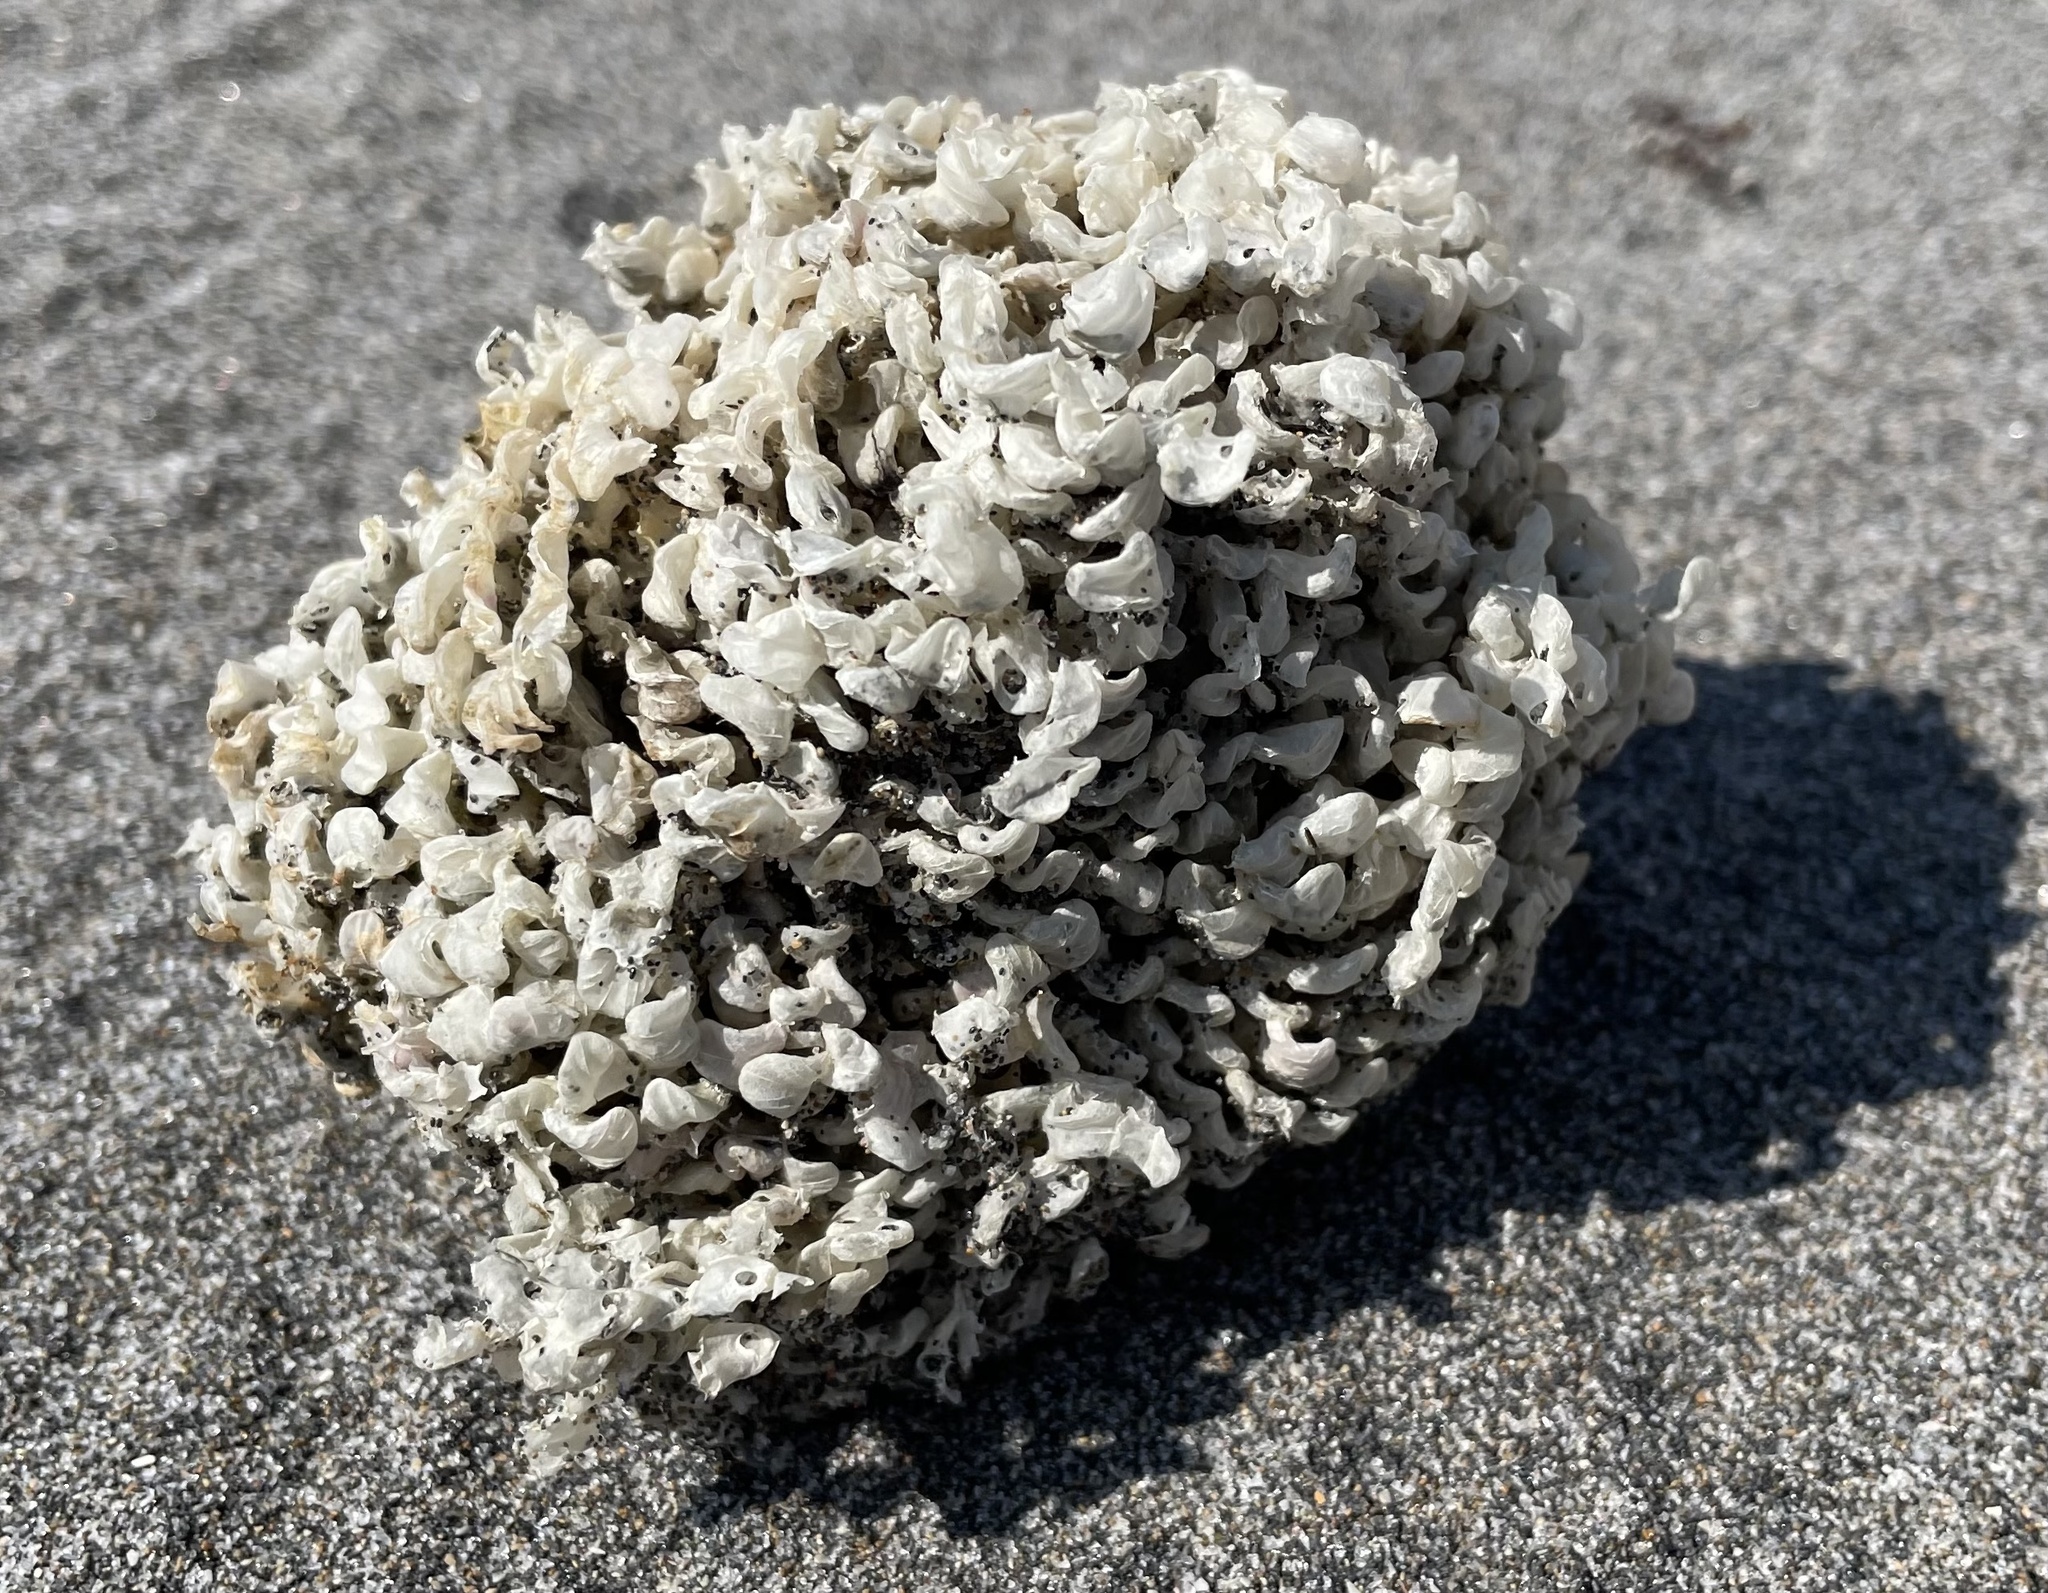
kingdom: Animalia
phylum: Mollusca
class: Gastropoda
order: Neogastropoda
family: Muricidae
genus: Phyllonotus
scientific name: Phyllonotus pomum
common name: Apple murex
